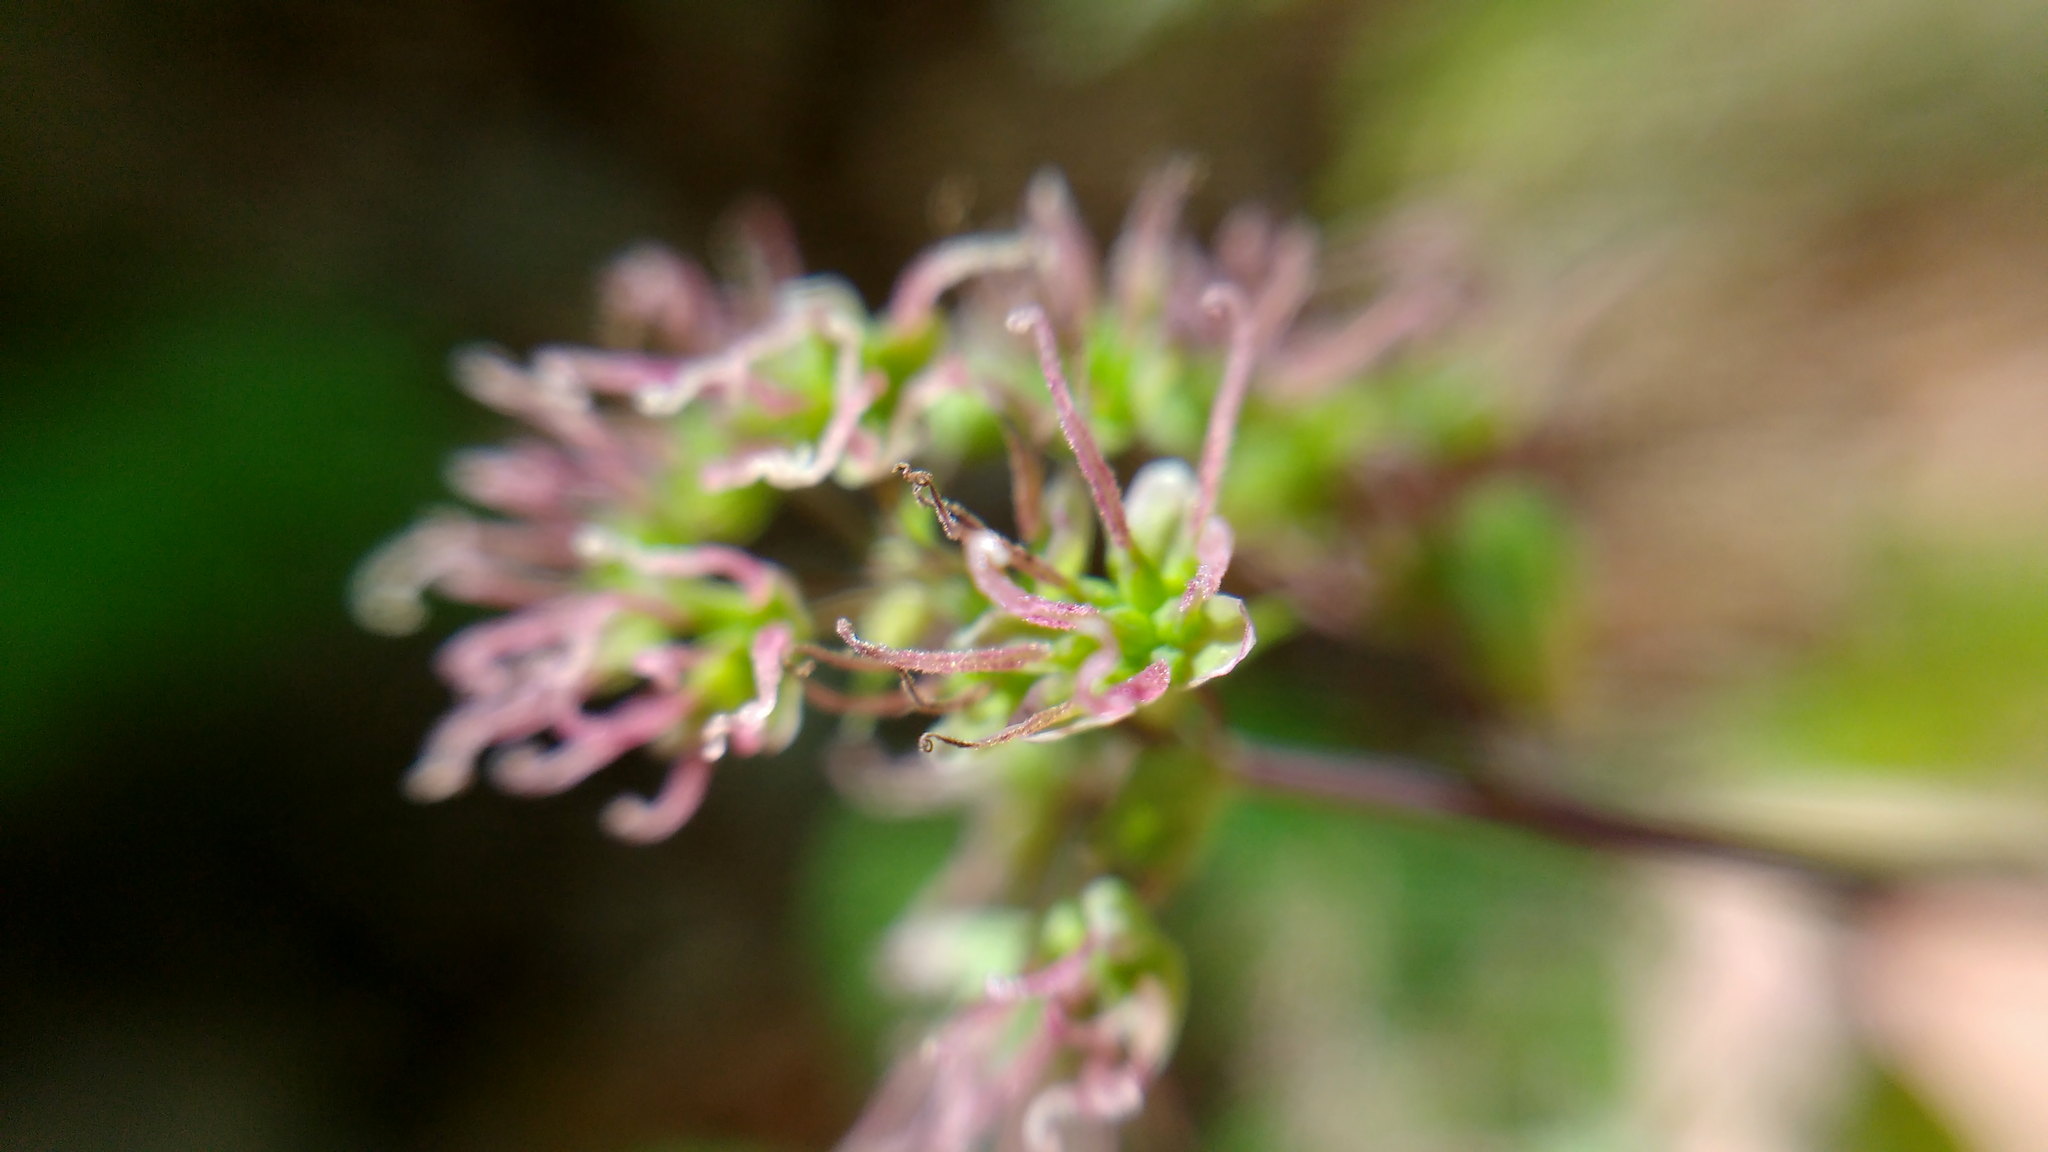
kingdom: Plantae
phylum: Tracheophyta
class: Magnoliopsida
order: Ranunculales
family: Ranunculaceae
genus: Thalictrum
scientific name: Thalictrum dioicum
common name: Early meadow-rue
